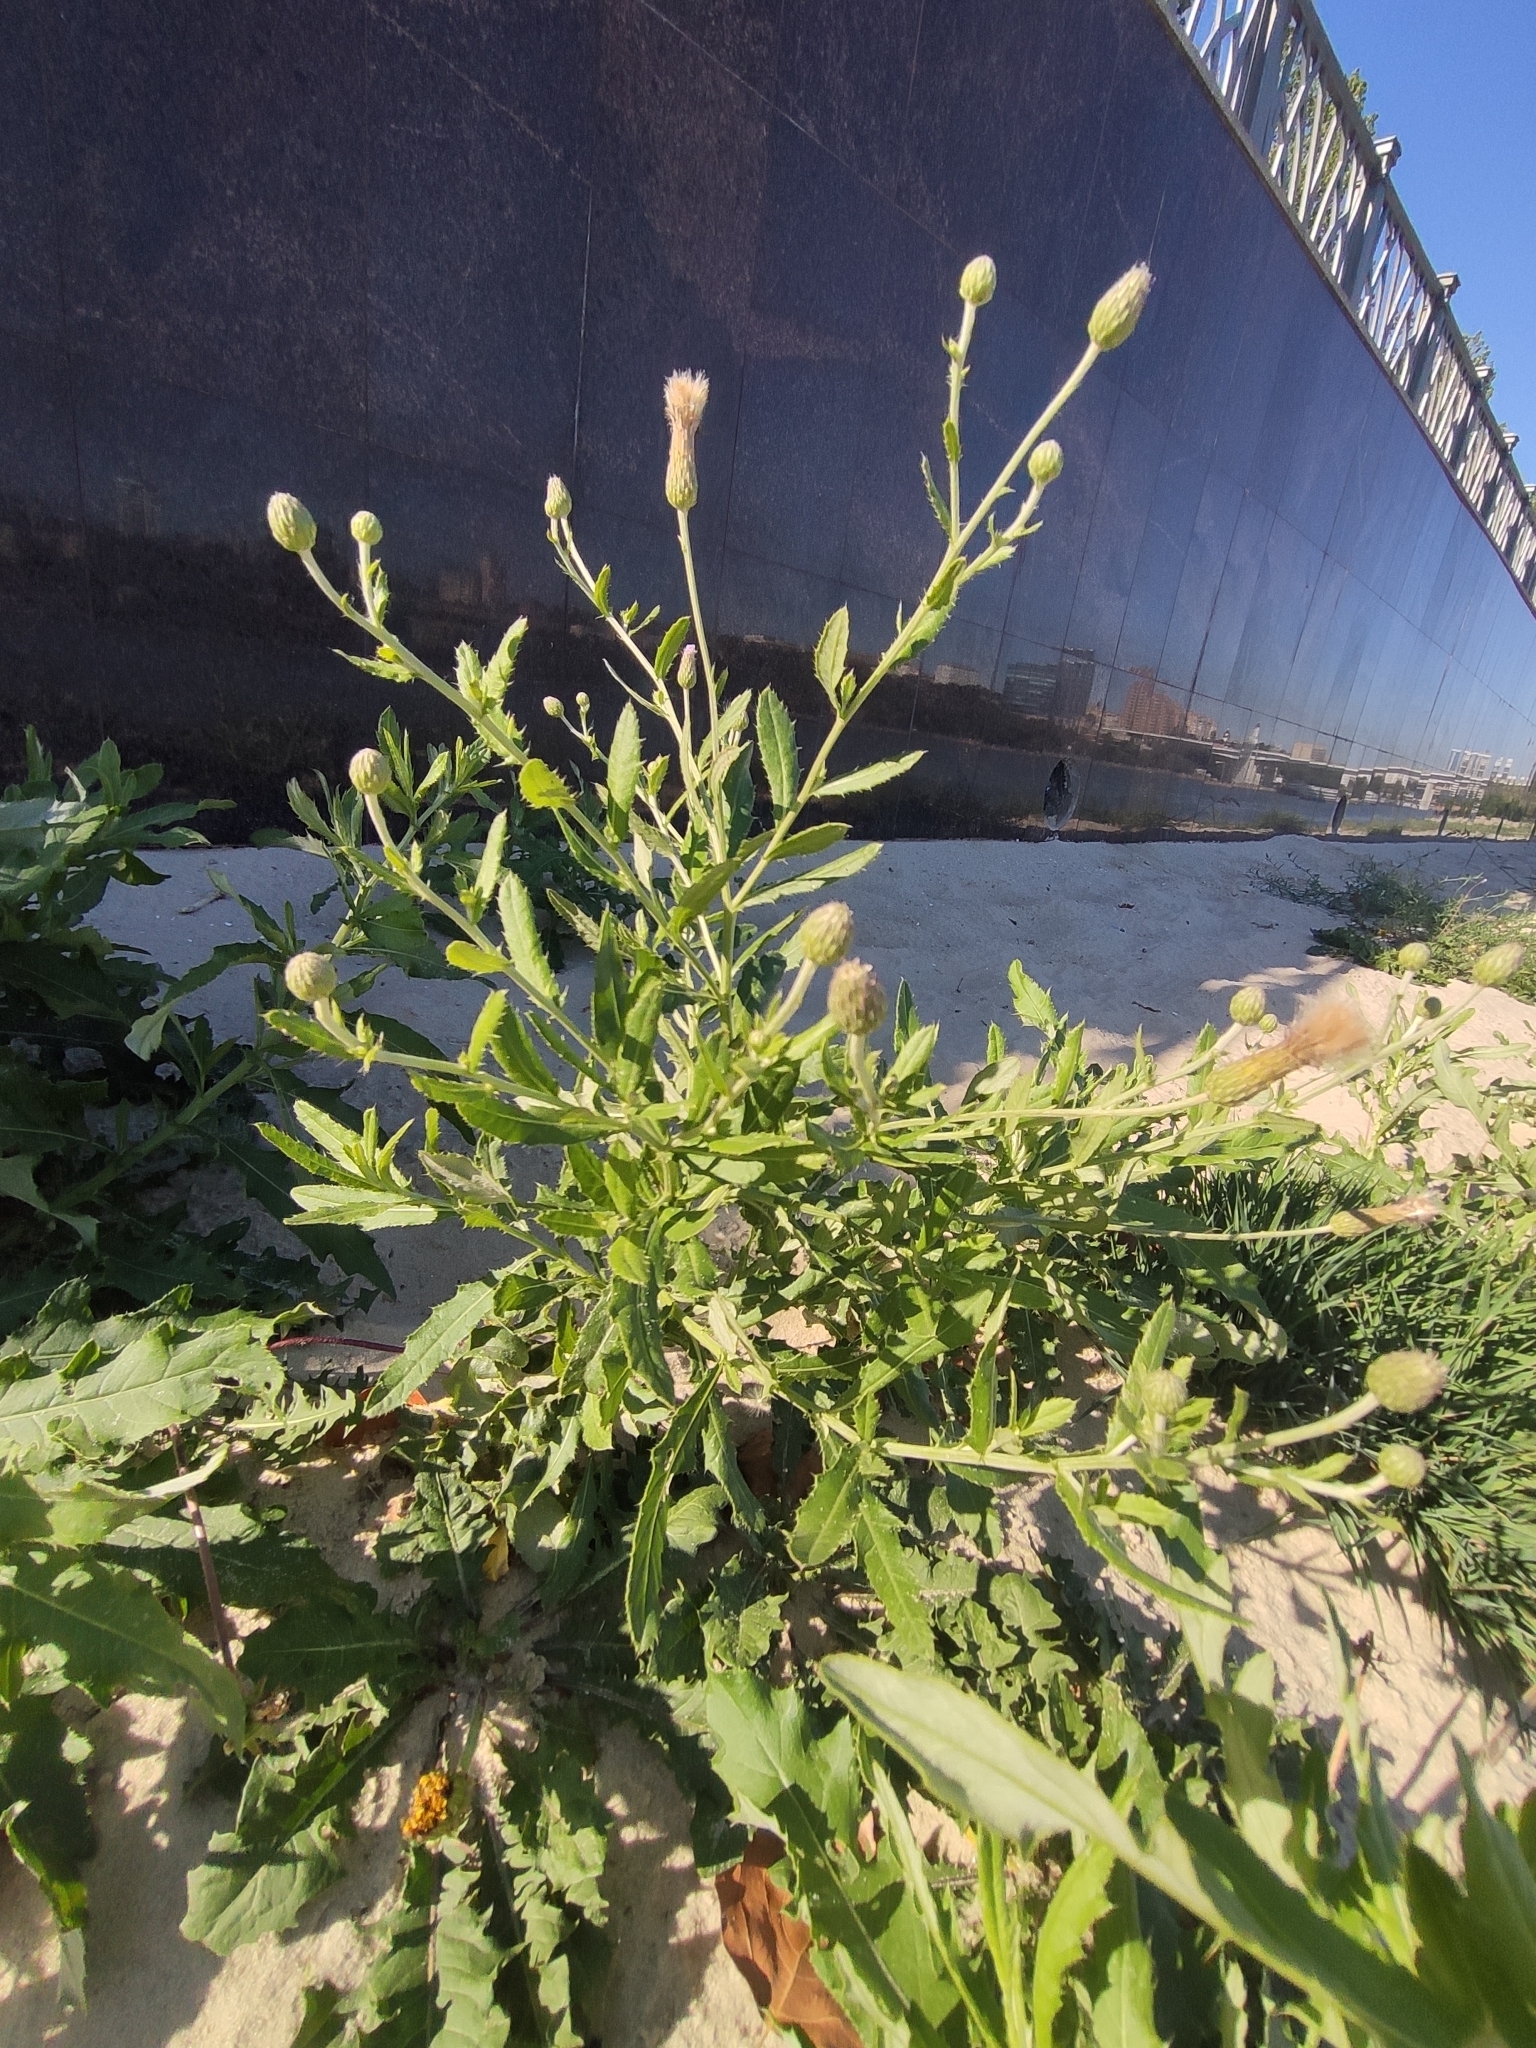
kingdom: Plantae
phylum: Tracheophyta
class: Magnoliopsida
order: Asterales
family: Asteraceae
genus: Cirsium
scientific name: Cirsium arvense
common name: Creeping thistle
